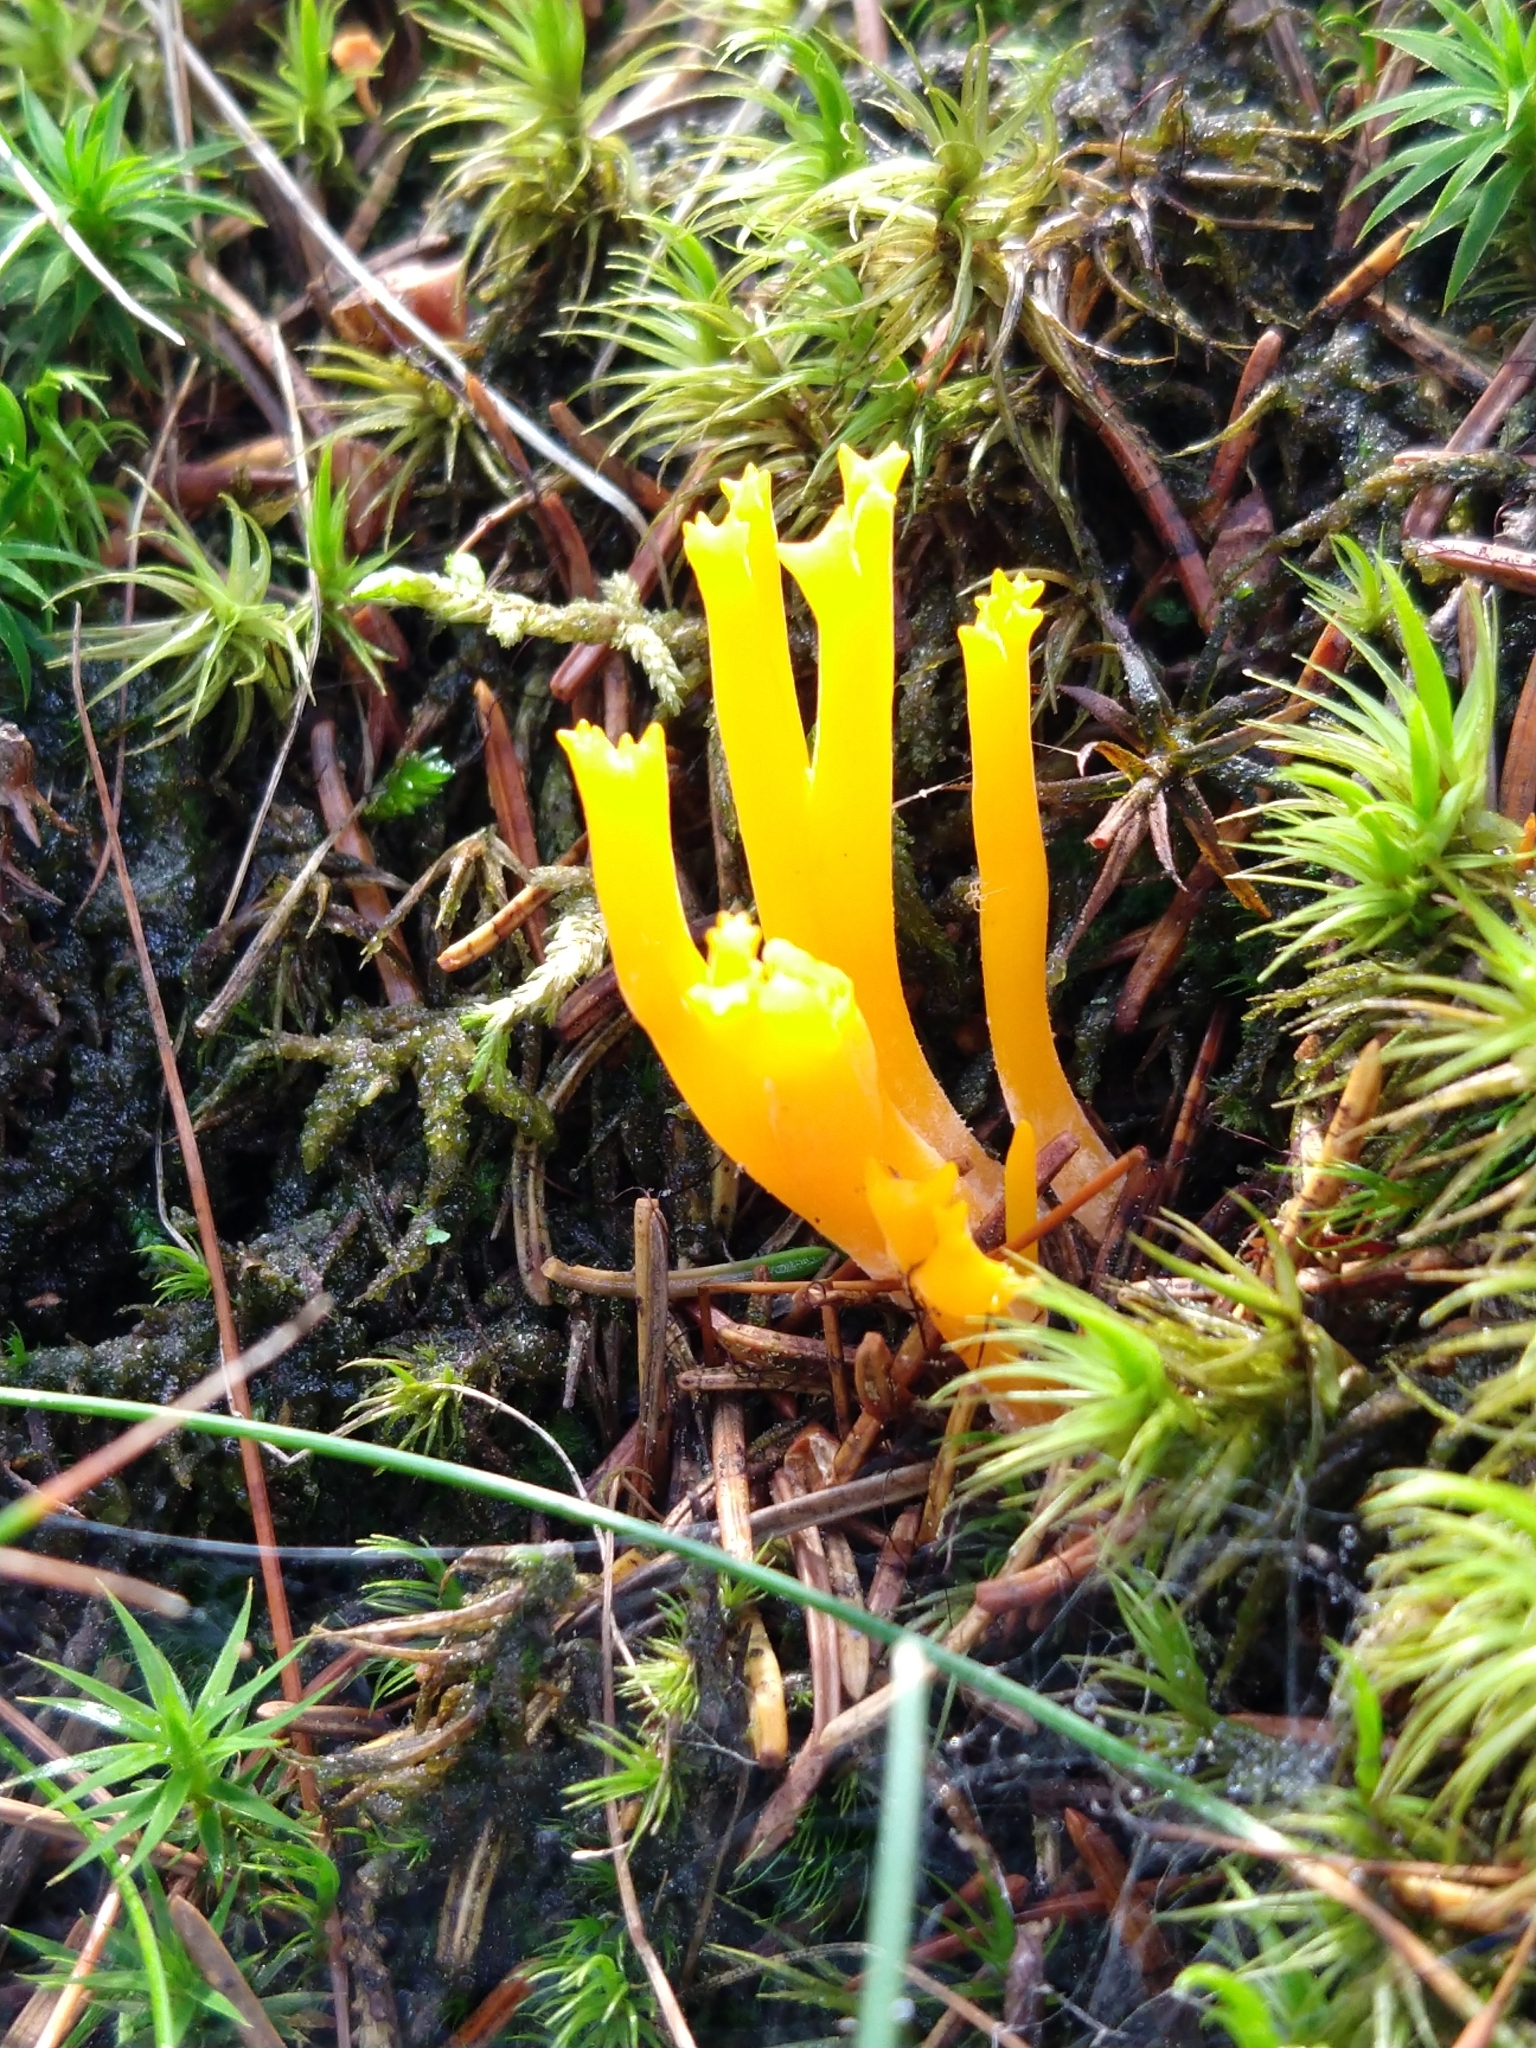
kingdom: Fungi
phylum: Basidiomycota
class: Dacrymycetes
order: Dacrymycetales
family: Dacrymycetaceae
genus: Calocera
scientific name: Calocera viscosa
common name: Yellow stagshorn
